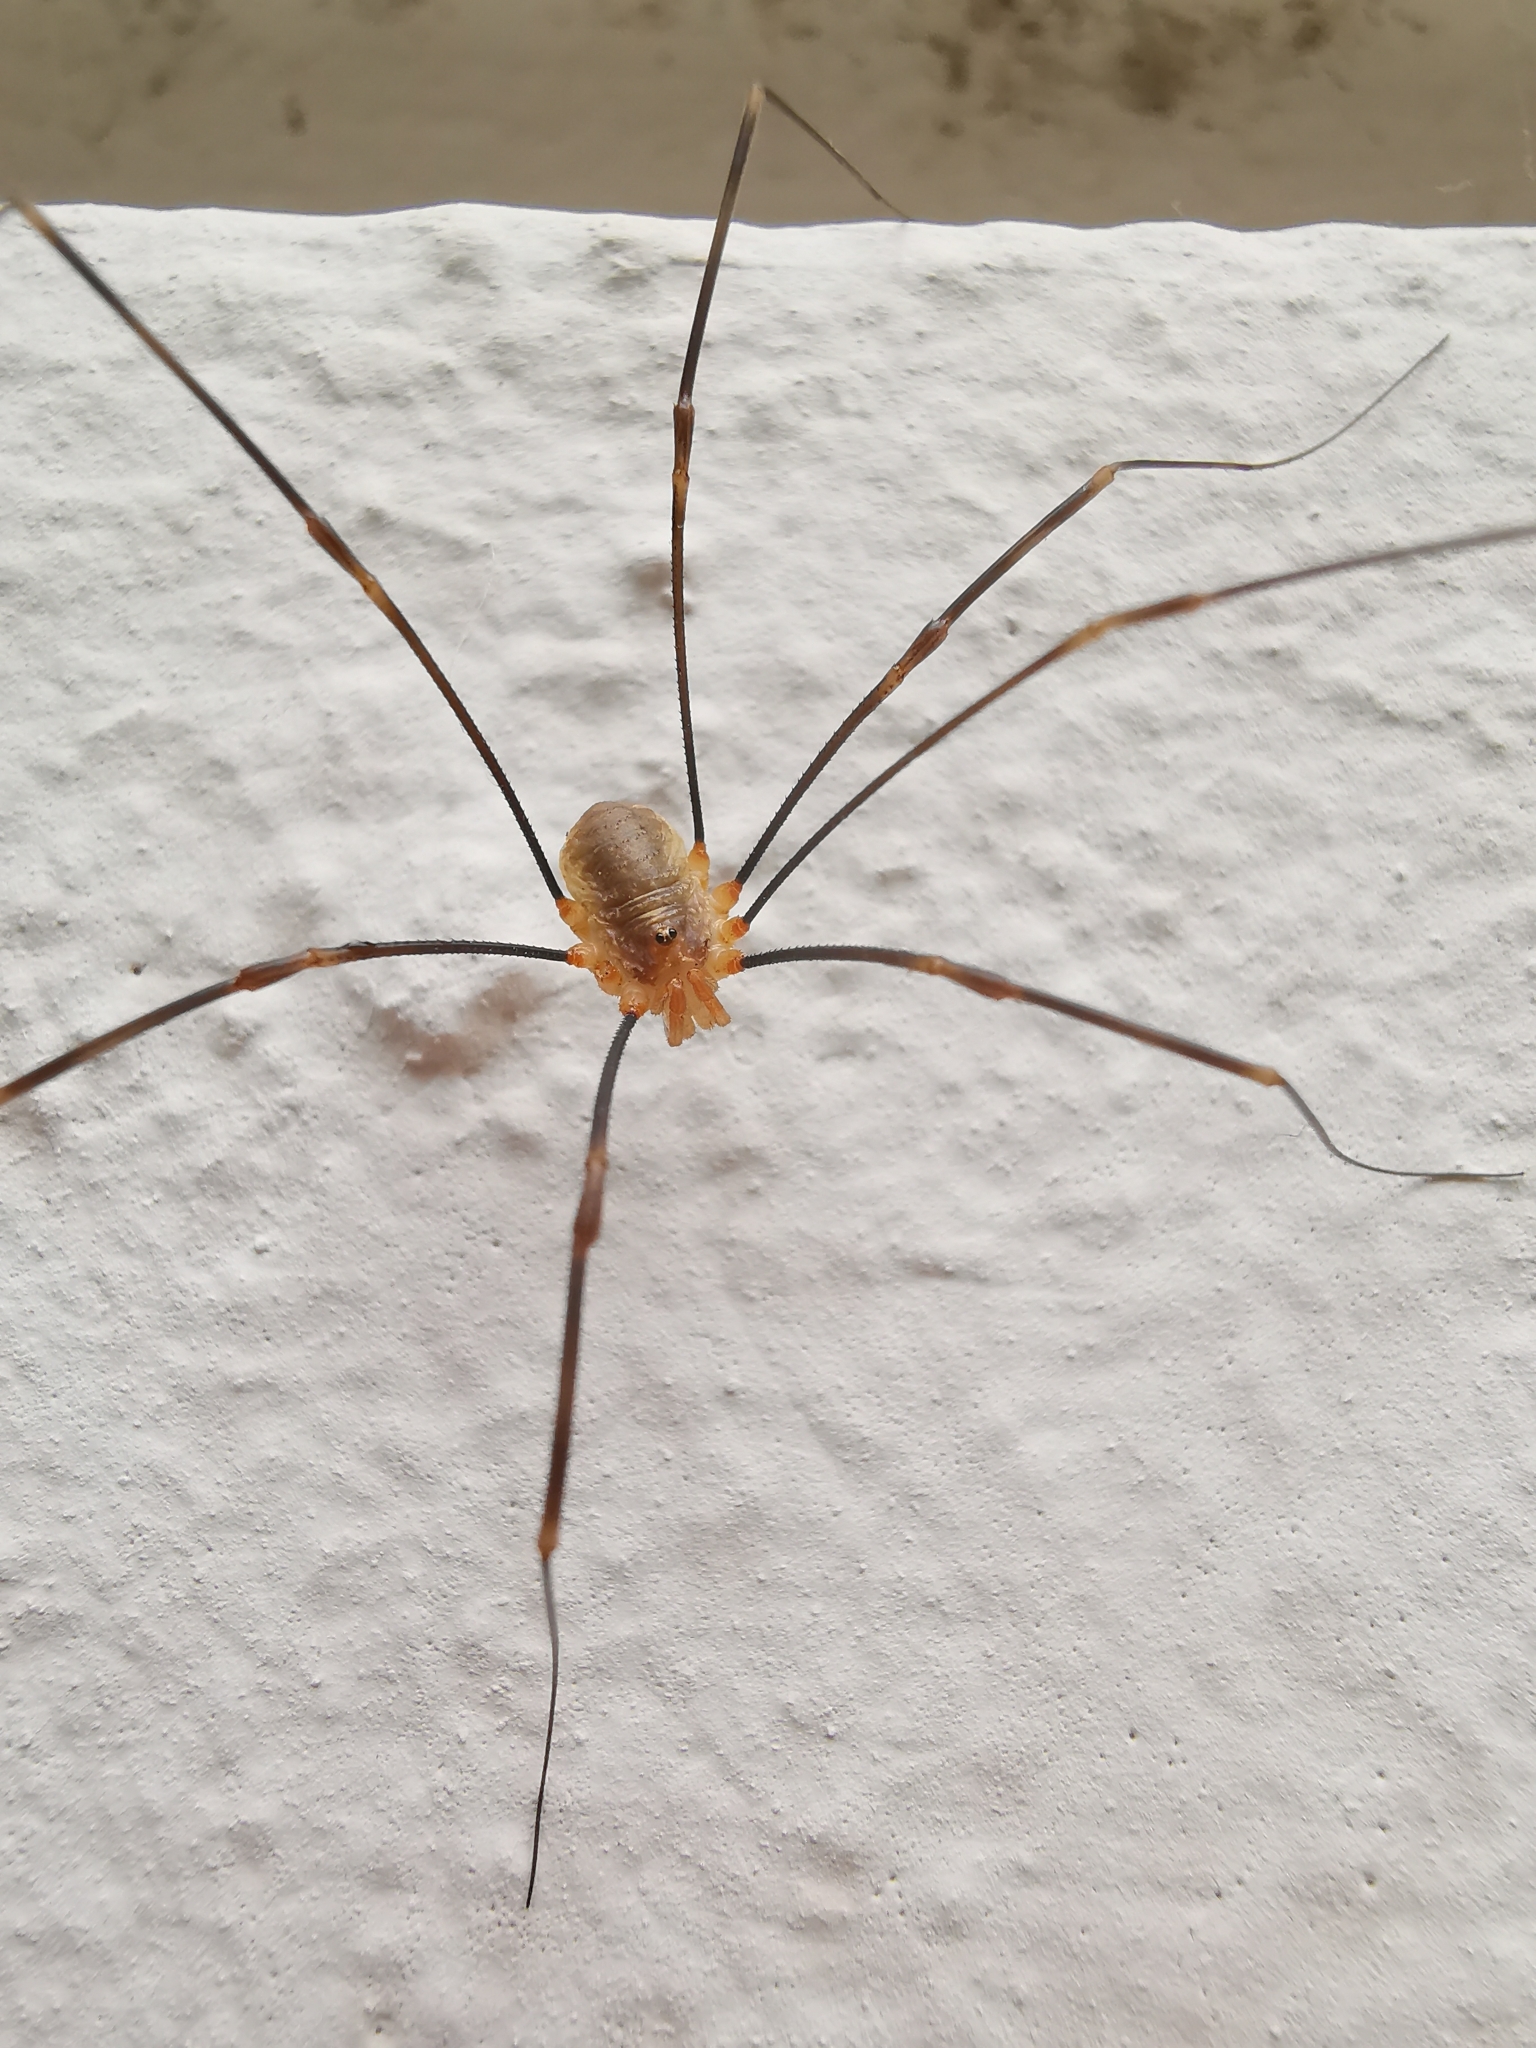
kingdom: Animalia
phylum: Arthropoda
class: Arachnida
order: Opiliones
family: Phalangiidae
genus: Opilio
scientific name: Opilio canestrinii
